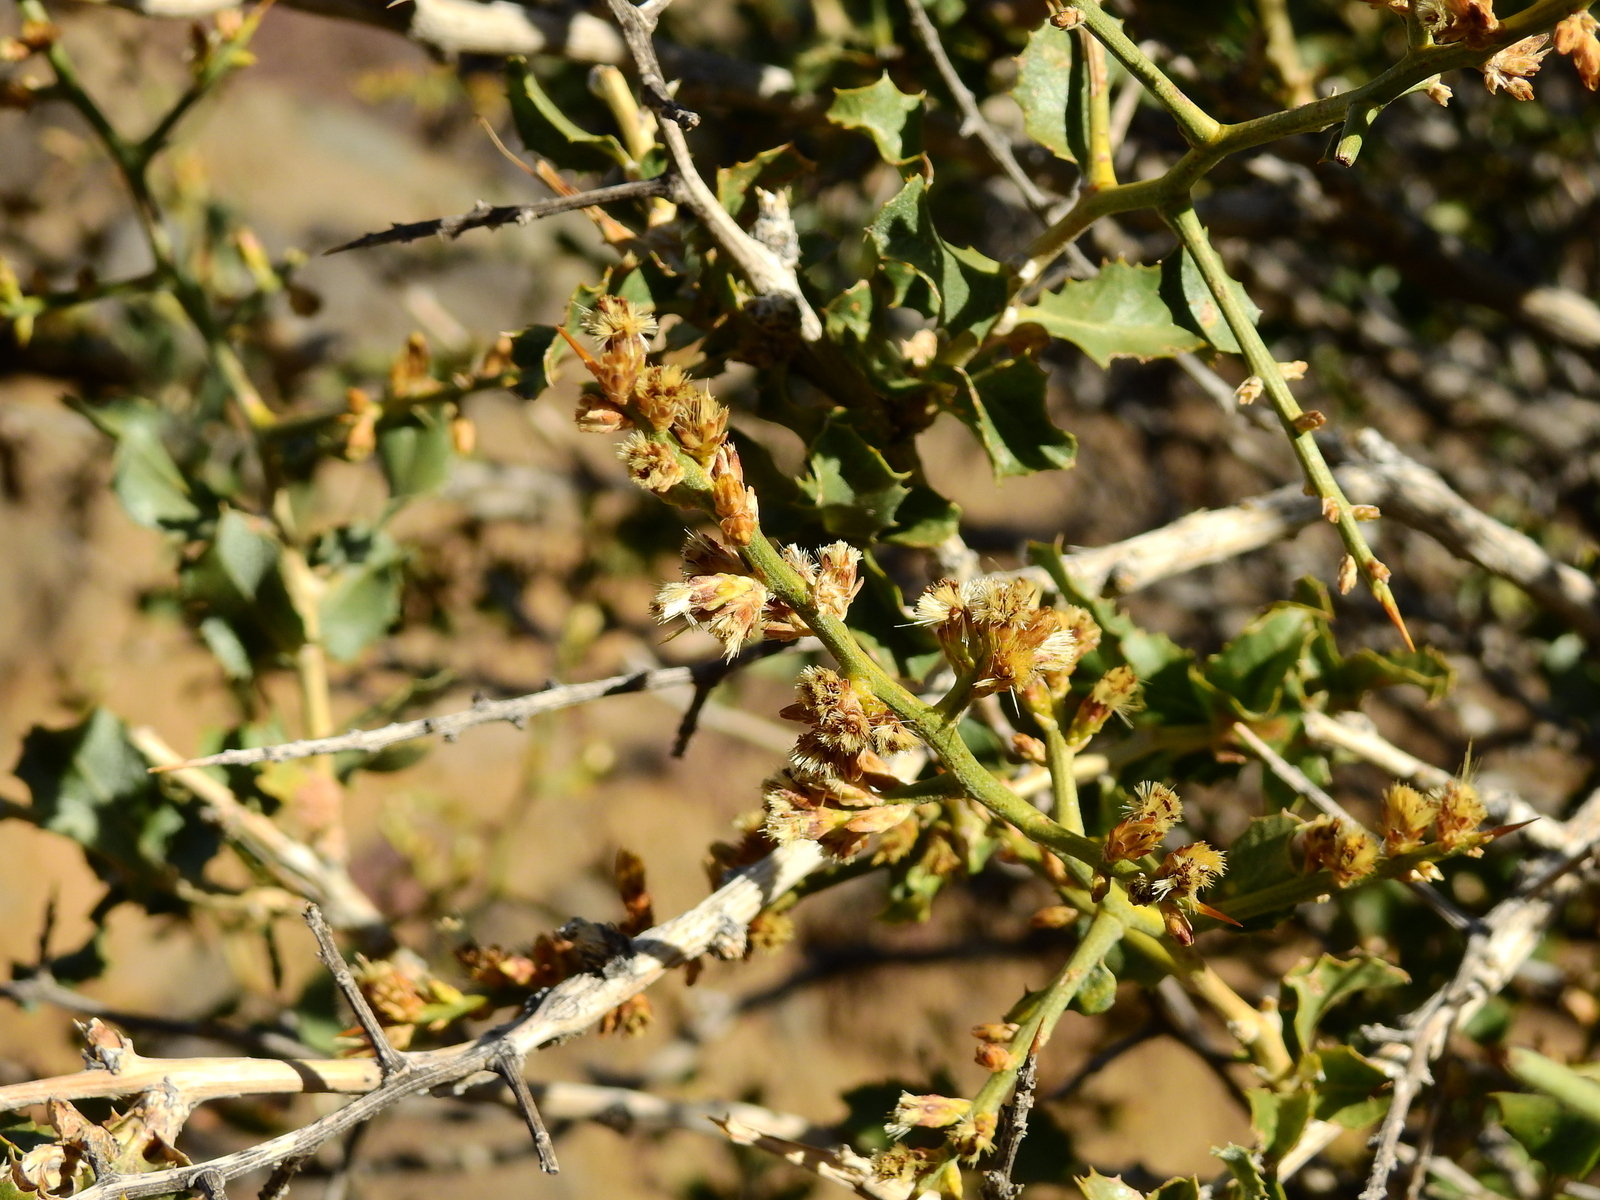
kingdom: Plantae
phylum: Tracheophyta
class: Magnoliopsida
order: Asterales
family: Asteraceae
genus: Proustia
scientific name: Proustia cuneifolia
